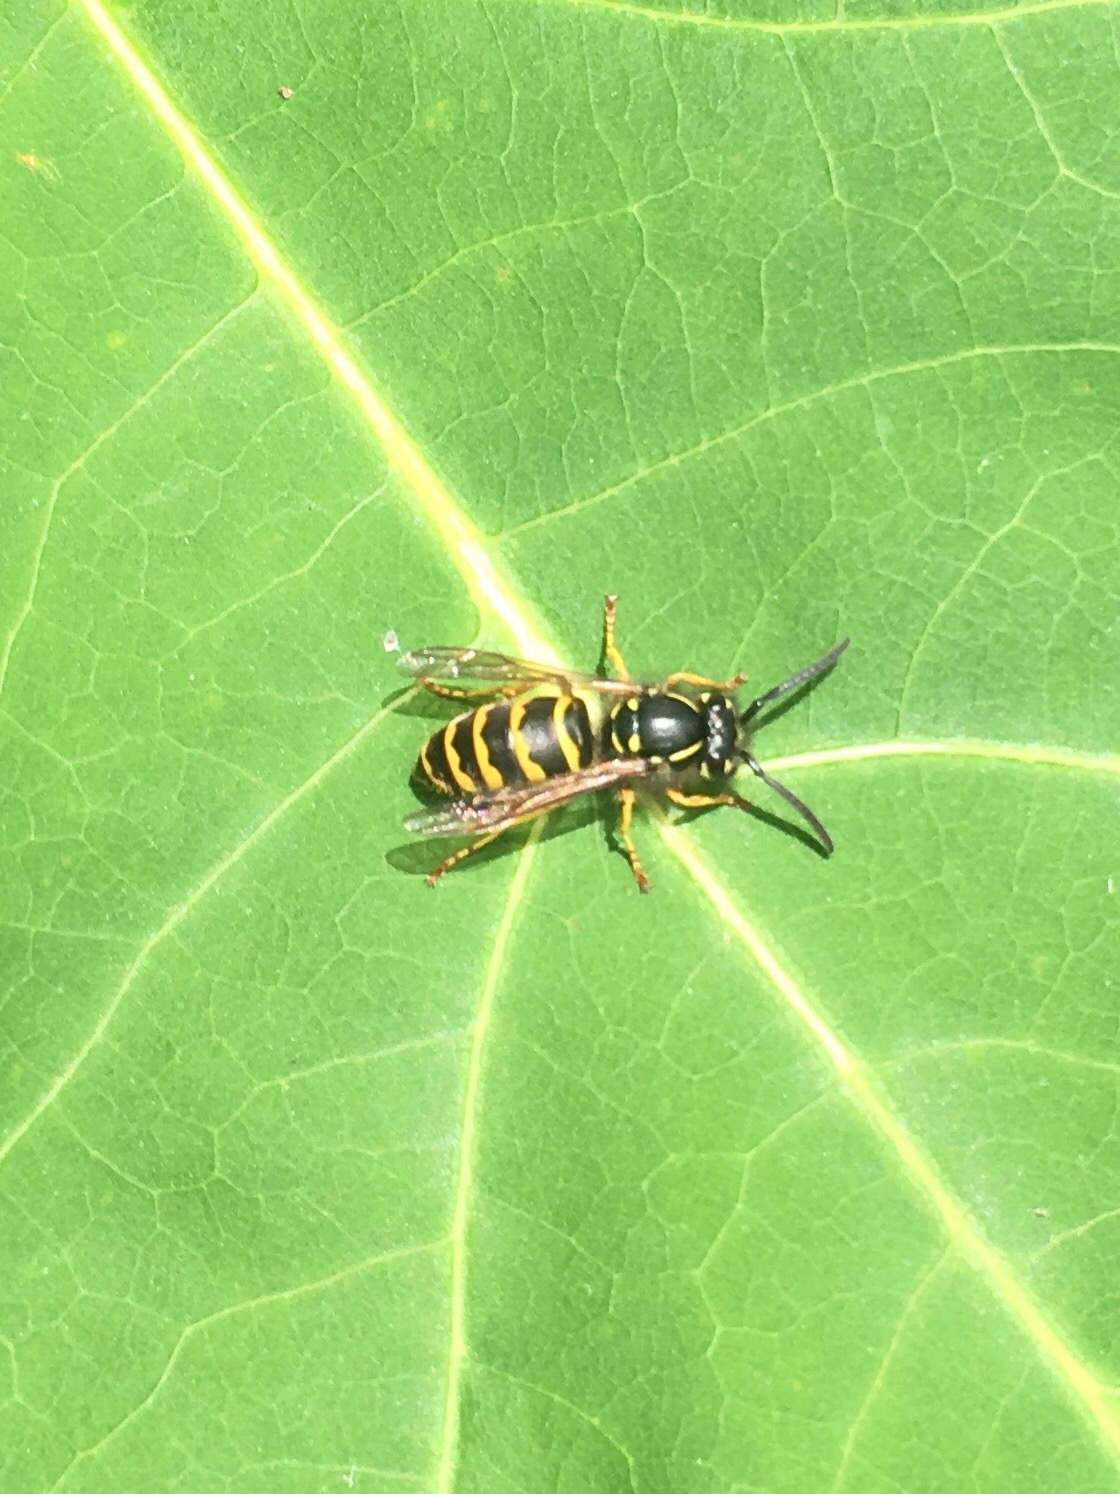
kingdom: Animalia
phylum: Arthropoda
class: Insecta
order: Hymenoptera
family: Vespidae
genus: Vespula
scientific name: Vespula alascensis
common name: Alaska yellowjacket
